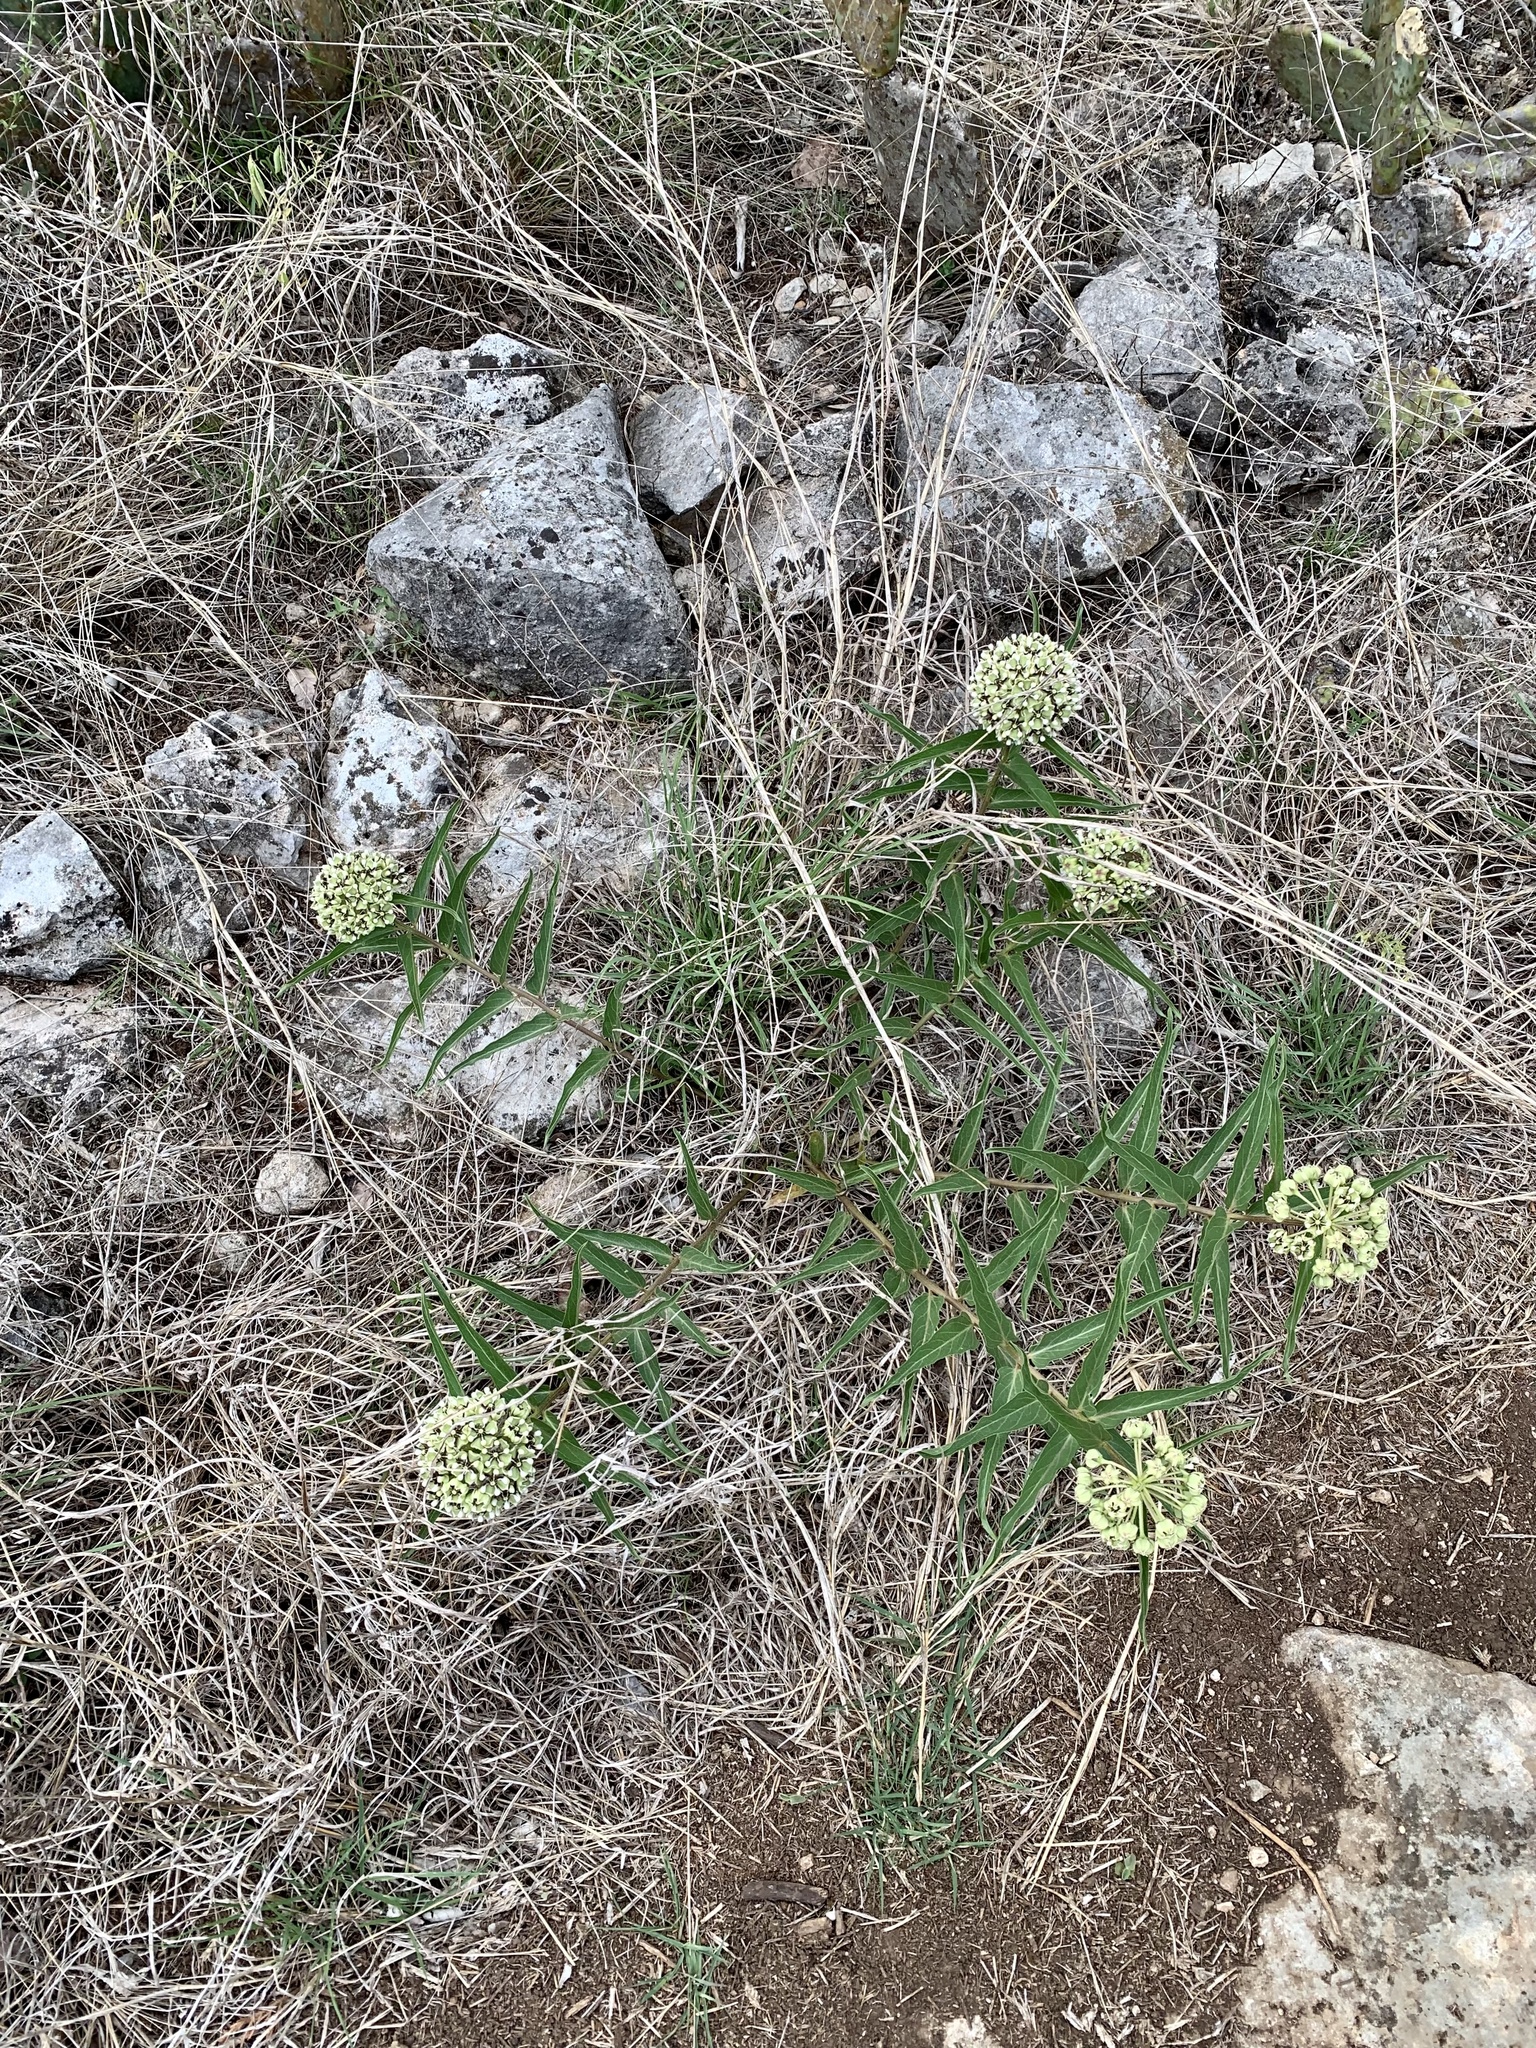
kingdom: Plantae
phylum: Tracheophyta
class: Magnoliopsida
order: Gentianales
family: Apocynaceae
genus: Asclepias
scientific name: Asclepias asperula
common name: Antelope horns
